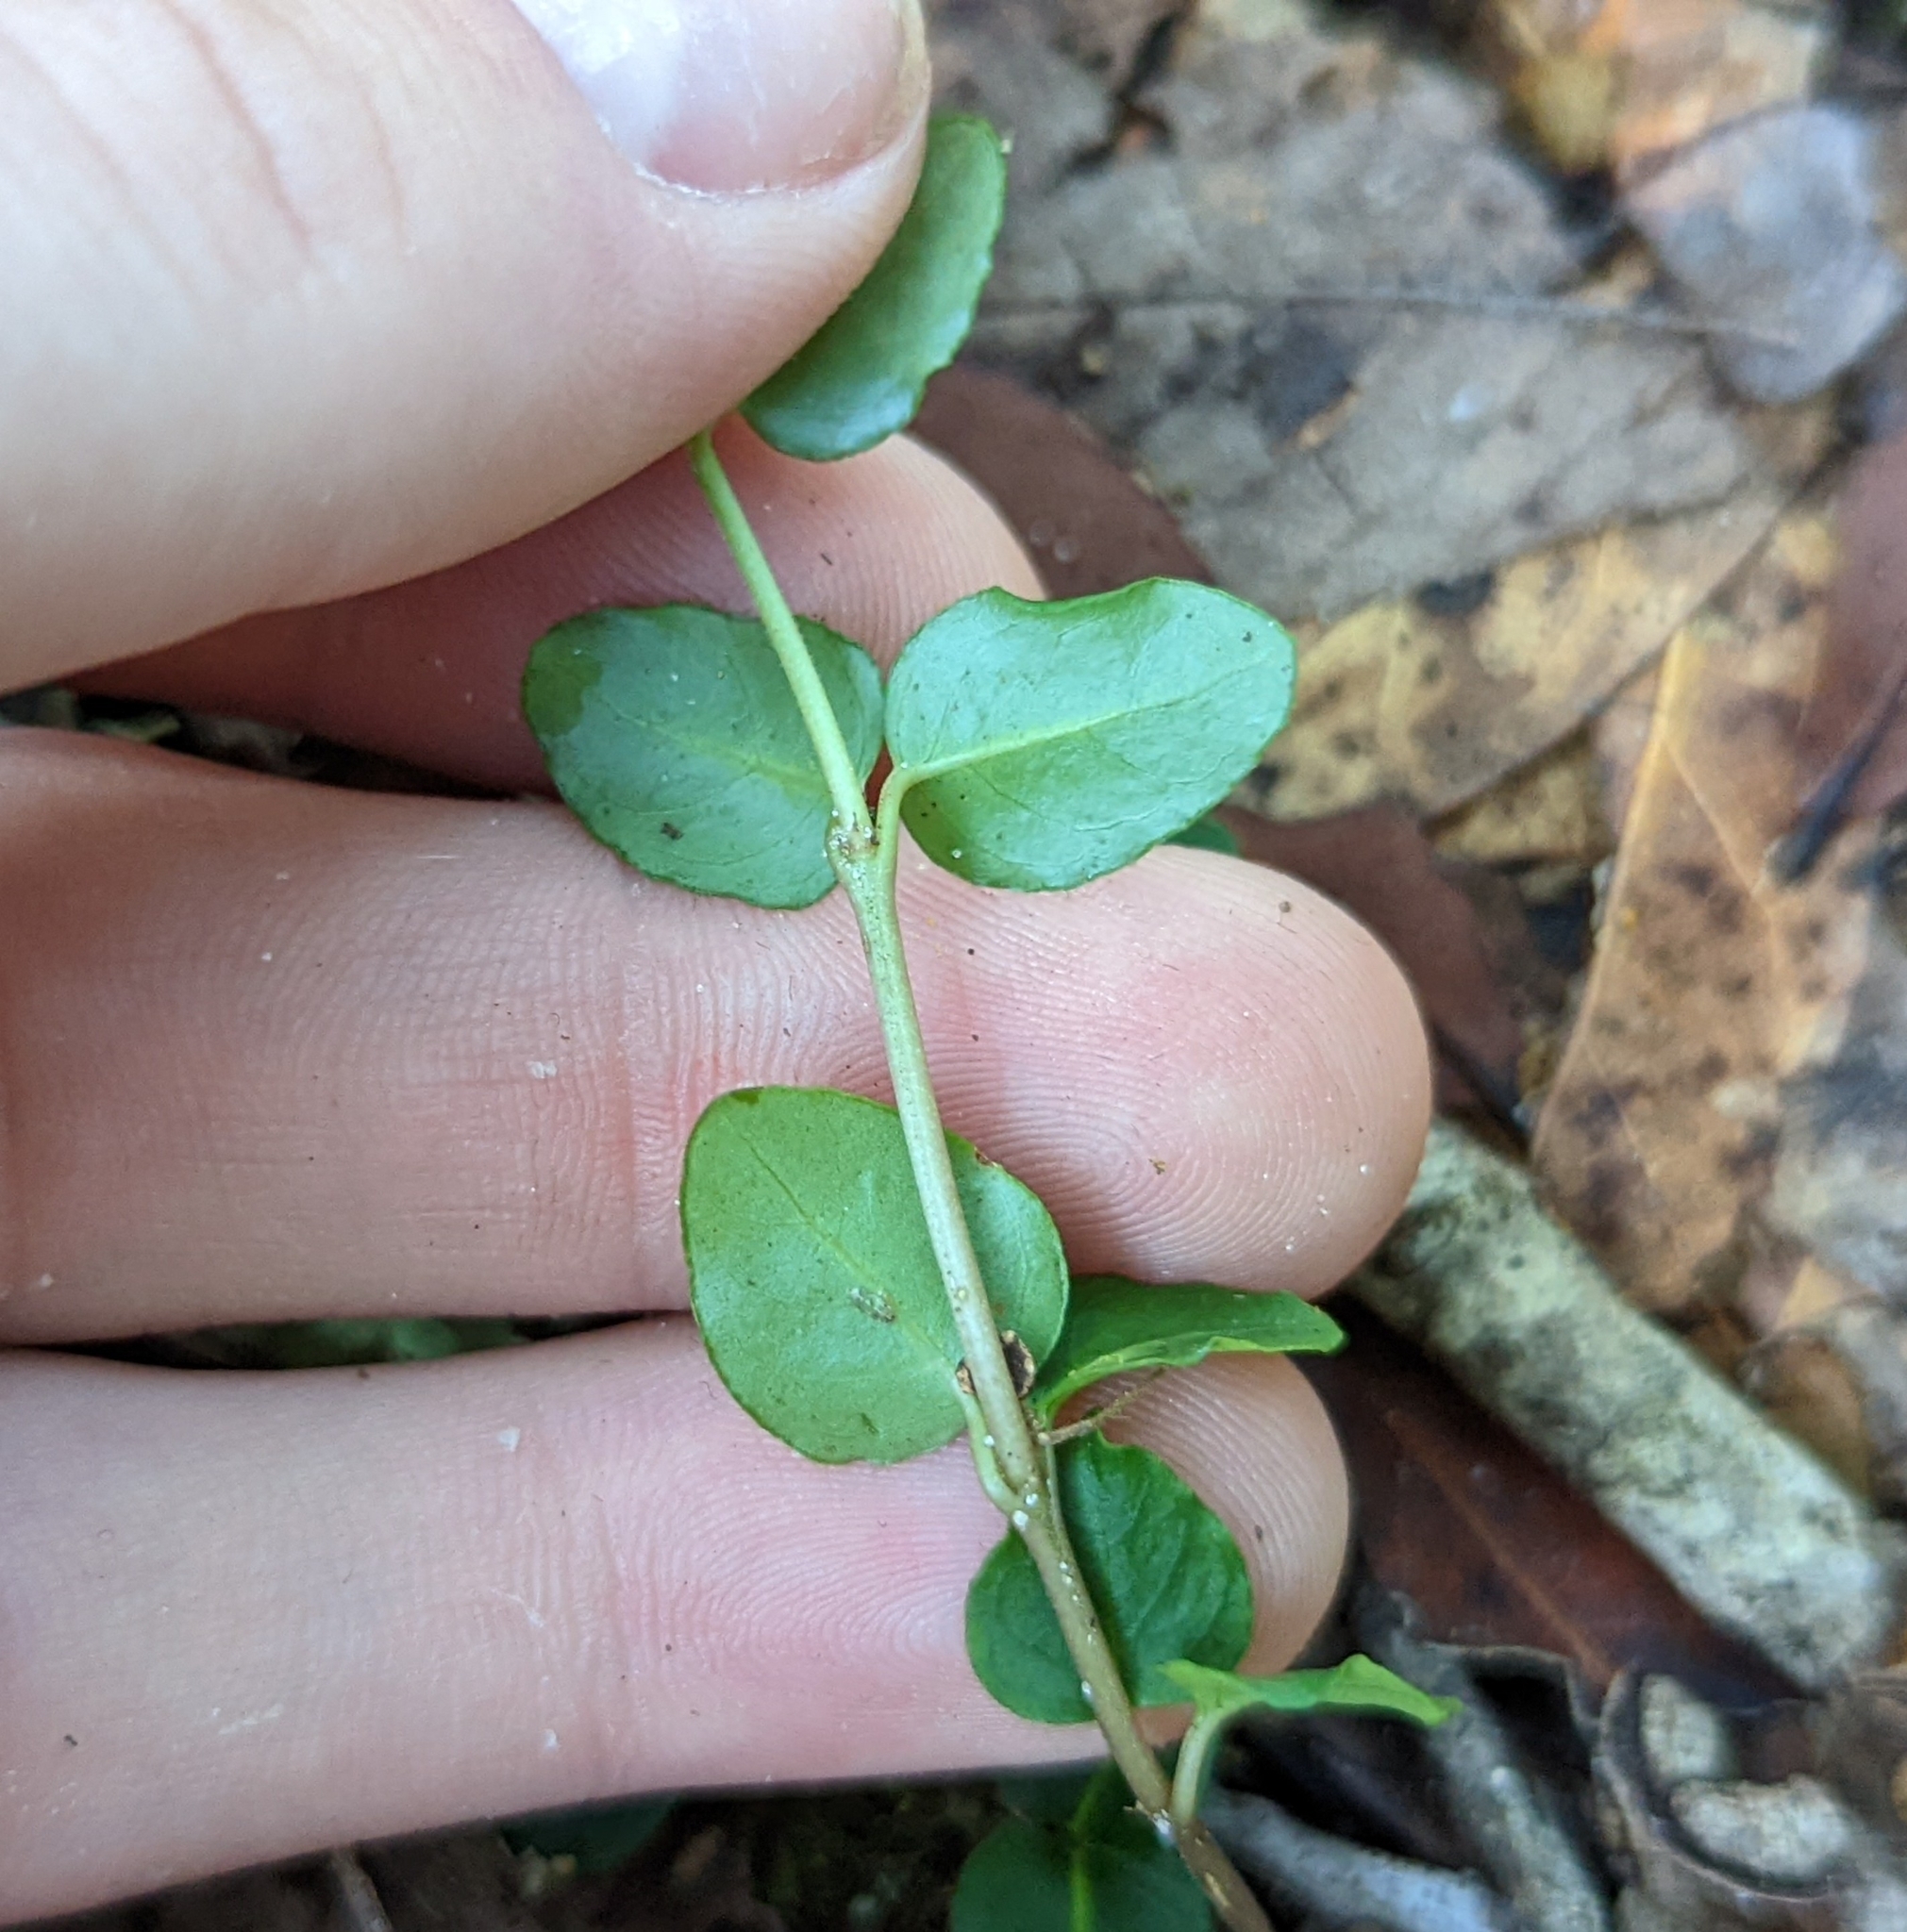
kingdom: Plantae
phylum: Tracheophyta
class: Magnoliopsida
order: Gentianales
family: Rubiaceae
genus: Mitchella
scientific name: Mitchella repens
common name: Partridge-berry
